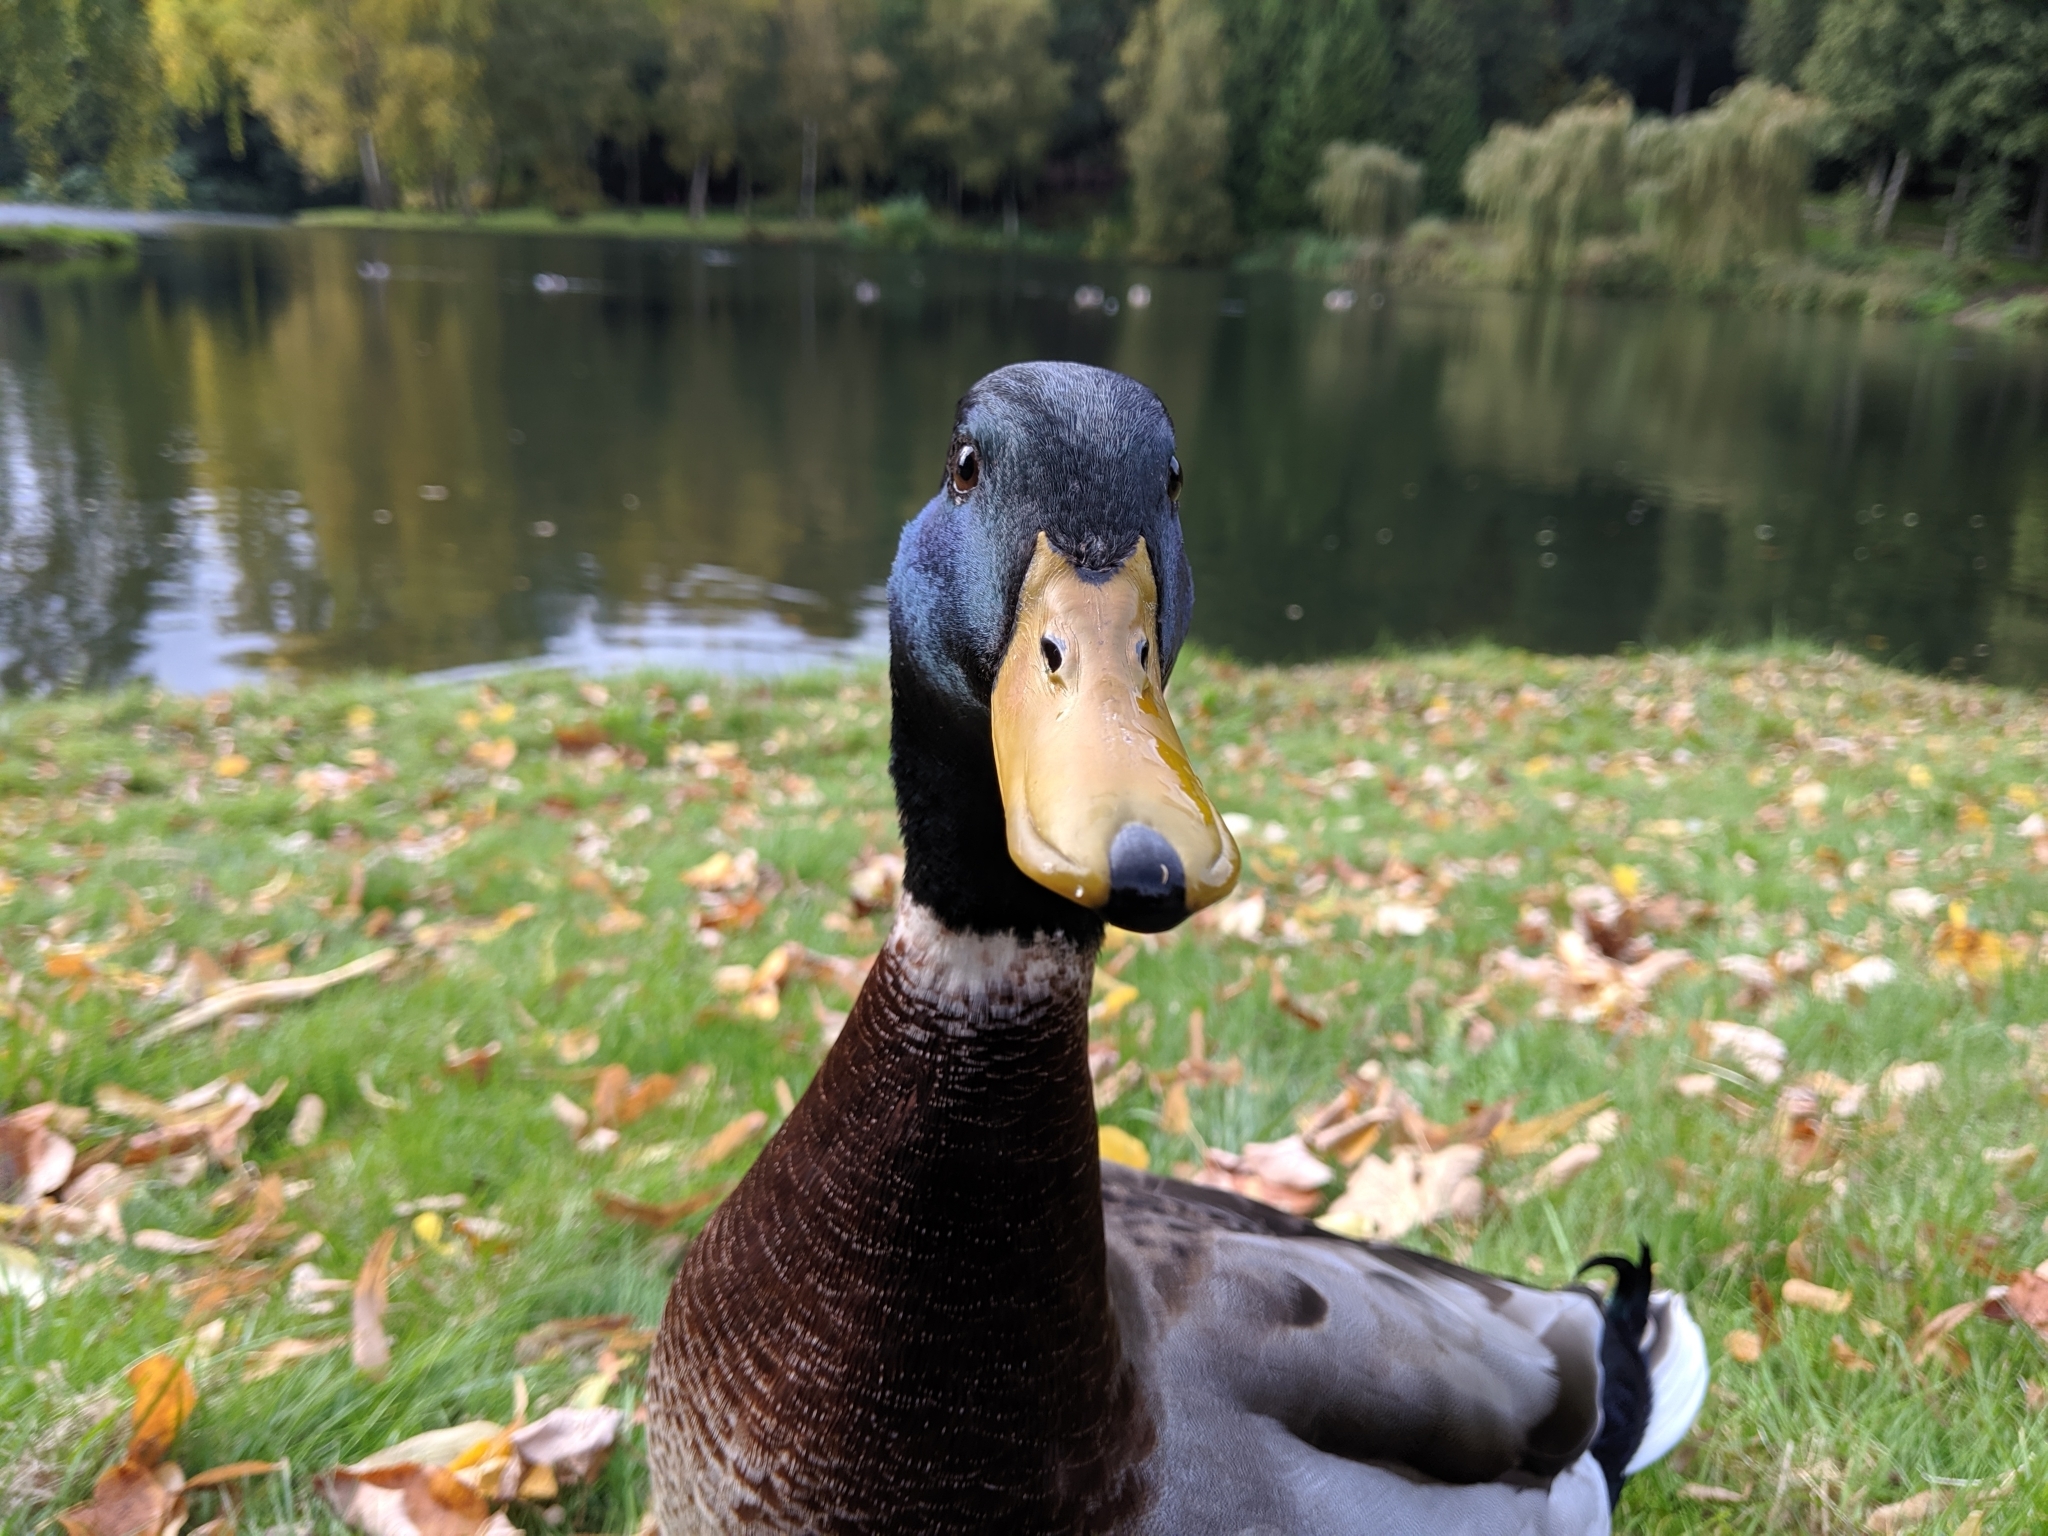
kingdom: Animalia
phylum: Chordata
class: Aves
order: Anseriformes
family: Anatidae
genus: Anas
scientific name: Anas platyrhynchos
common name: Mallard
